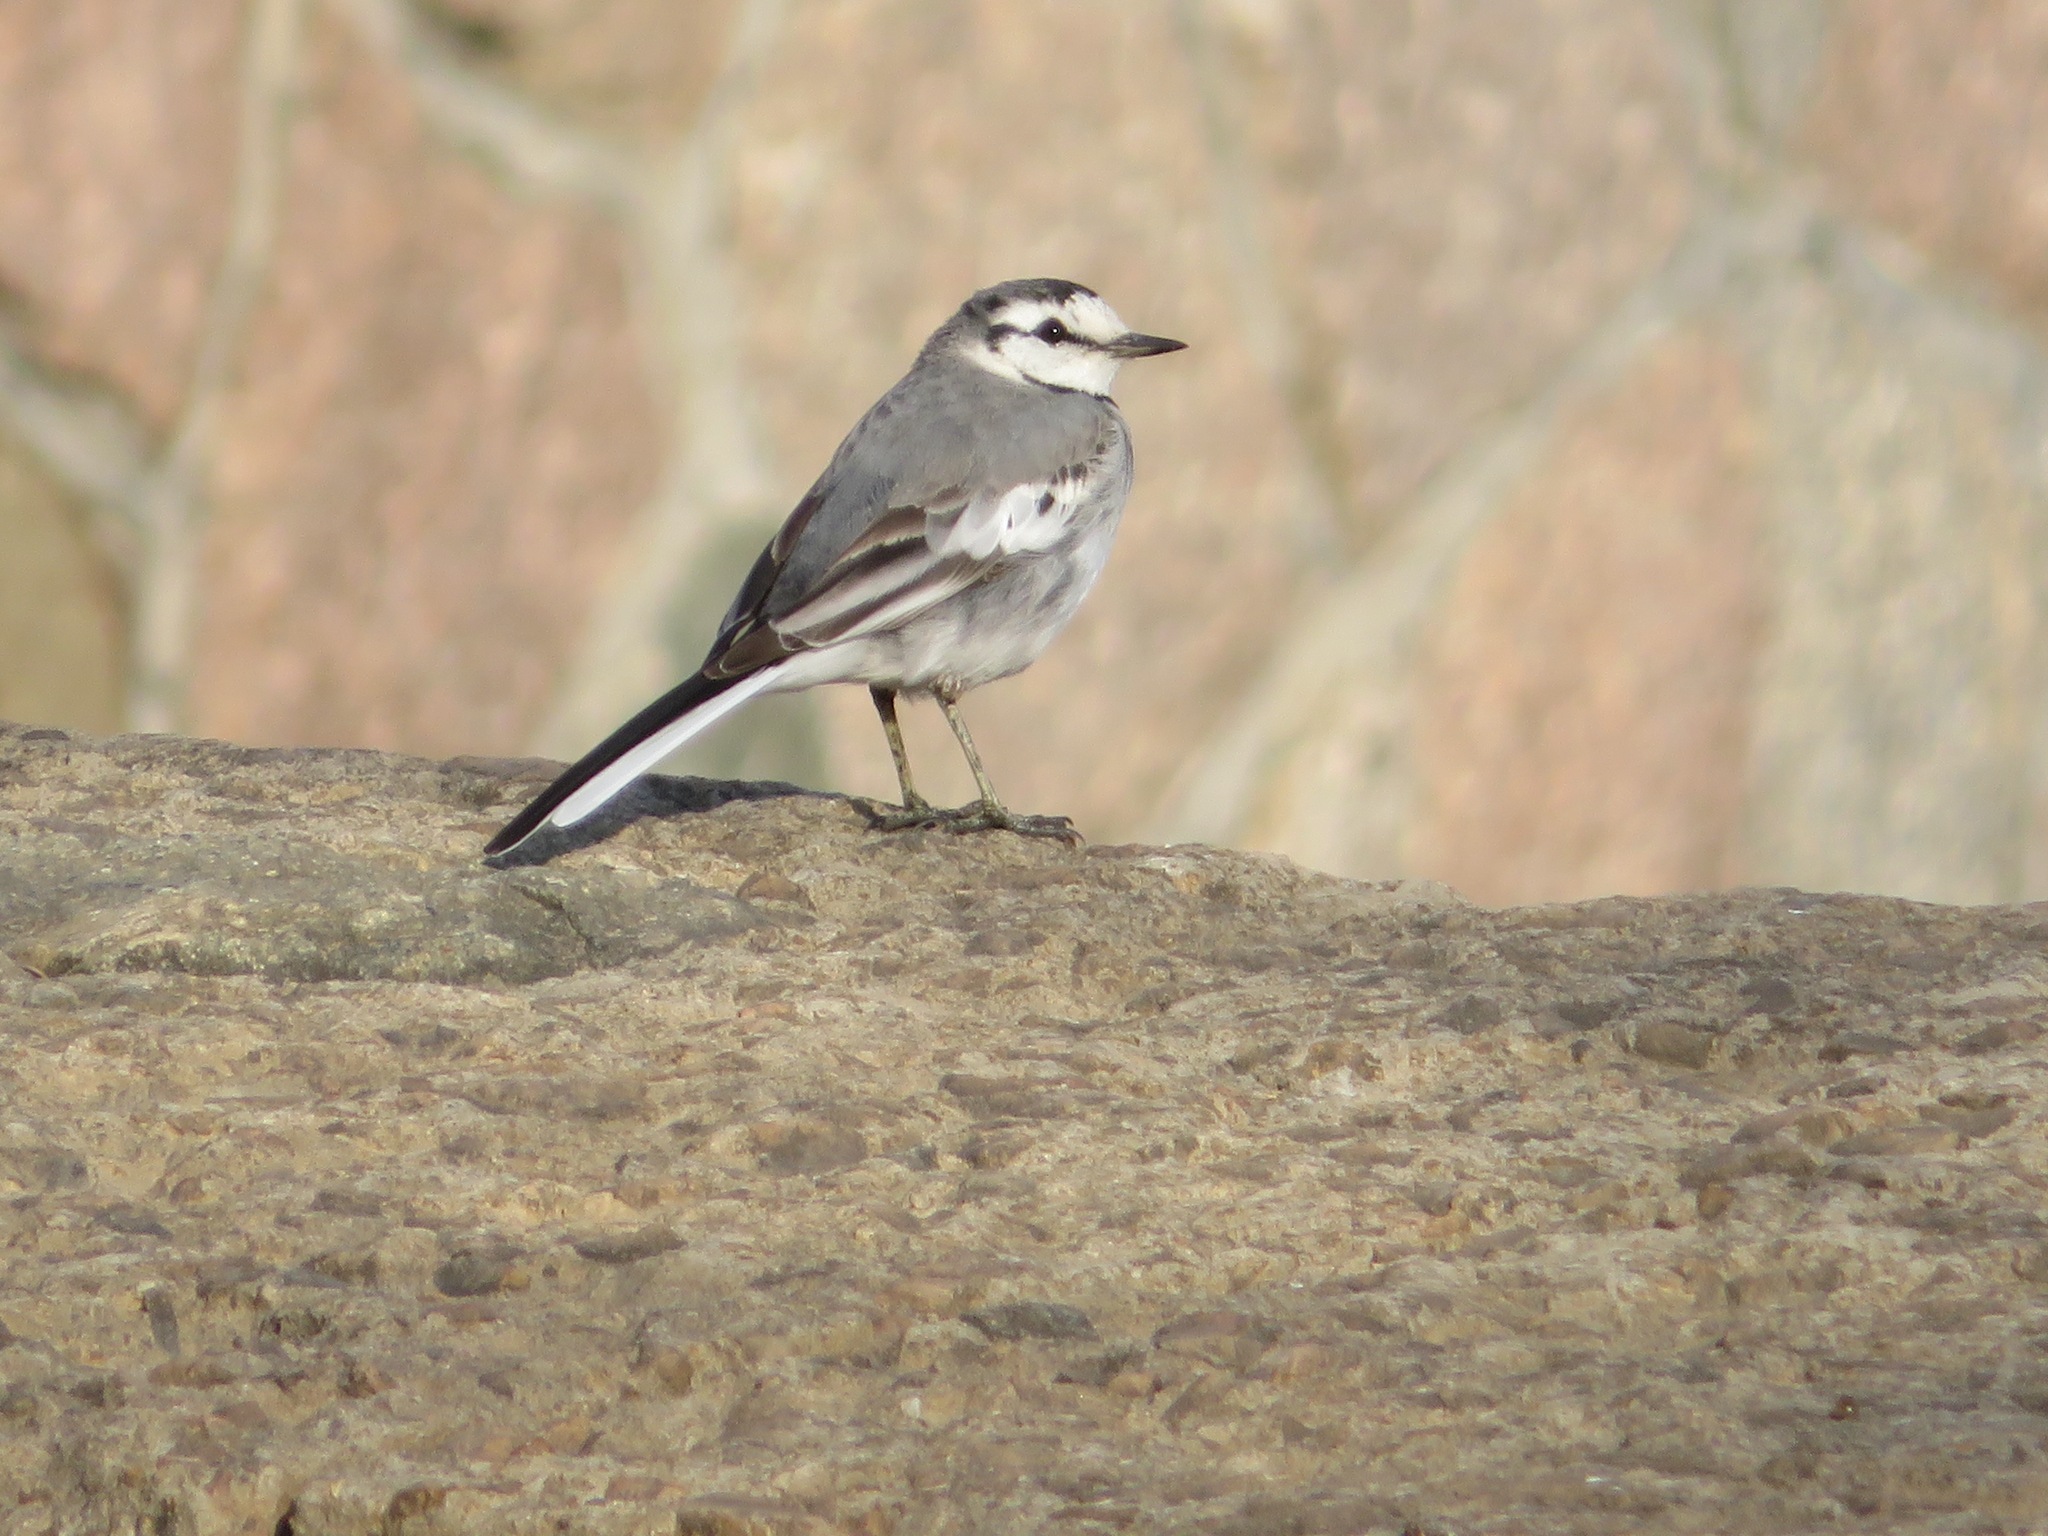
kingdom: Animalia
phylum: Chordata
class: Aves
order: Passeriformes
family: Motacillidae
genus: Motacilla
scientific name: Motacilla alba
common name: White wagtail
